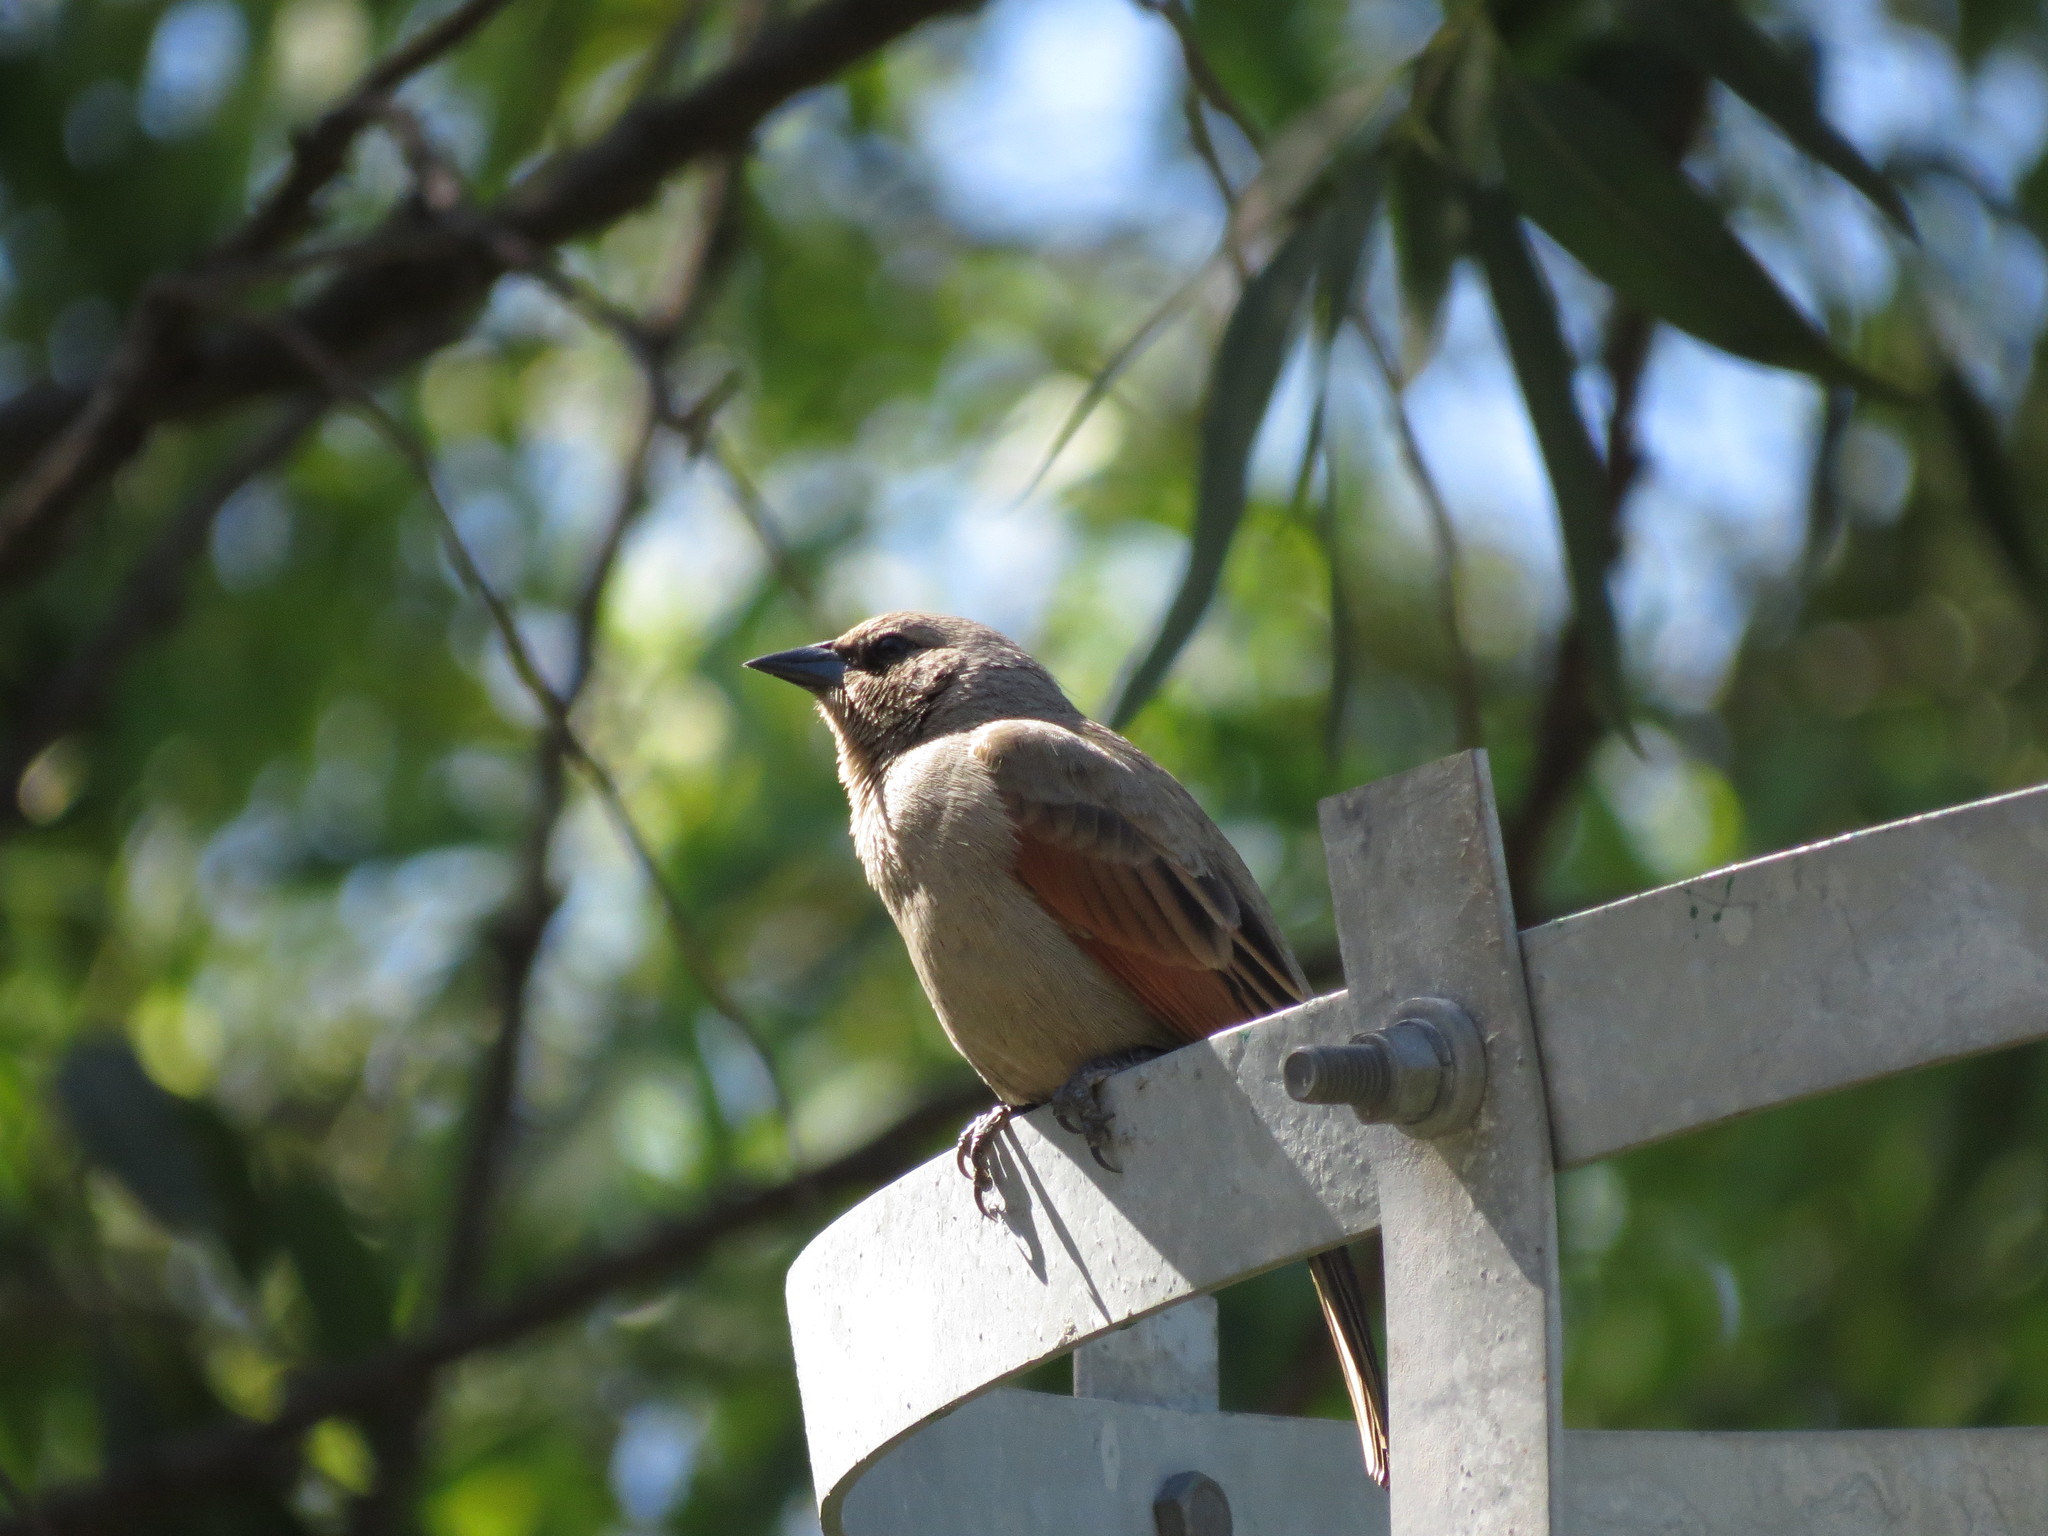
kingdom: Animalia
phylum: Chordata
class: Aves
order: Passeriformes
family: Icteridae
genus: Agelaioides
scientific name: Agelaioides badius
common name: Baywing
